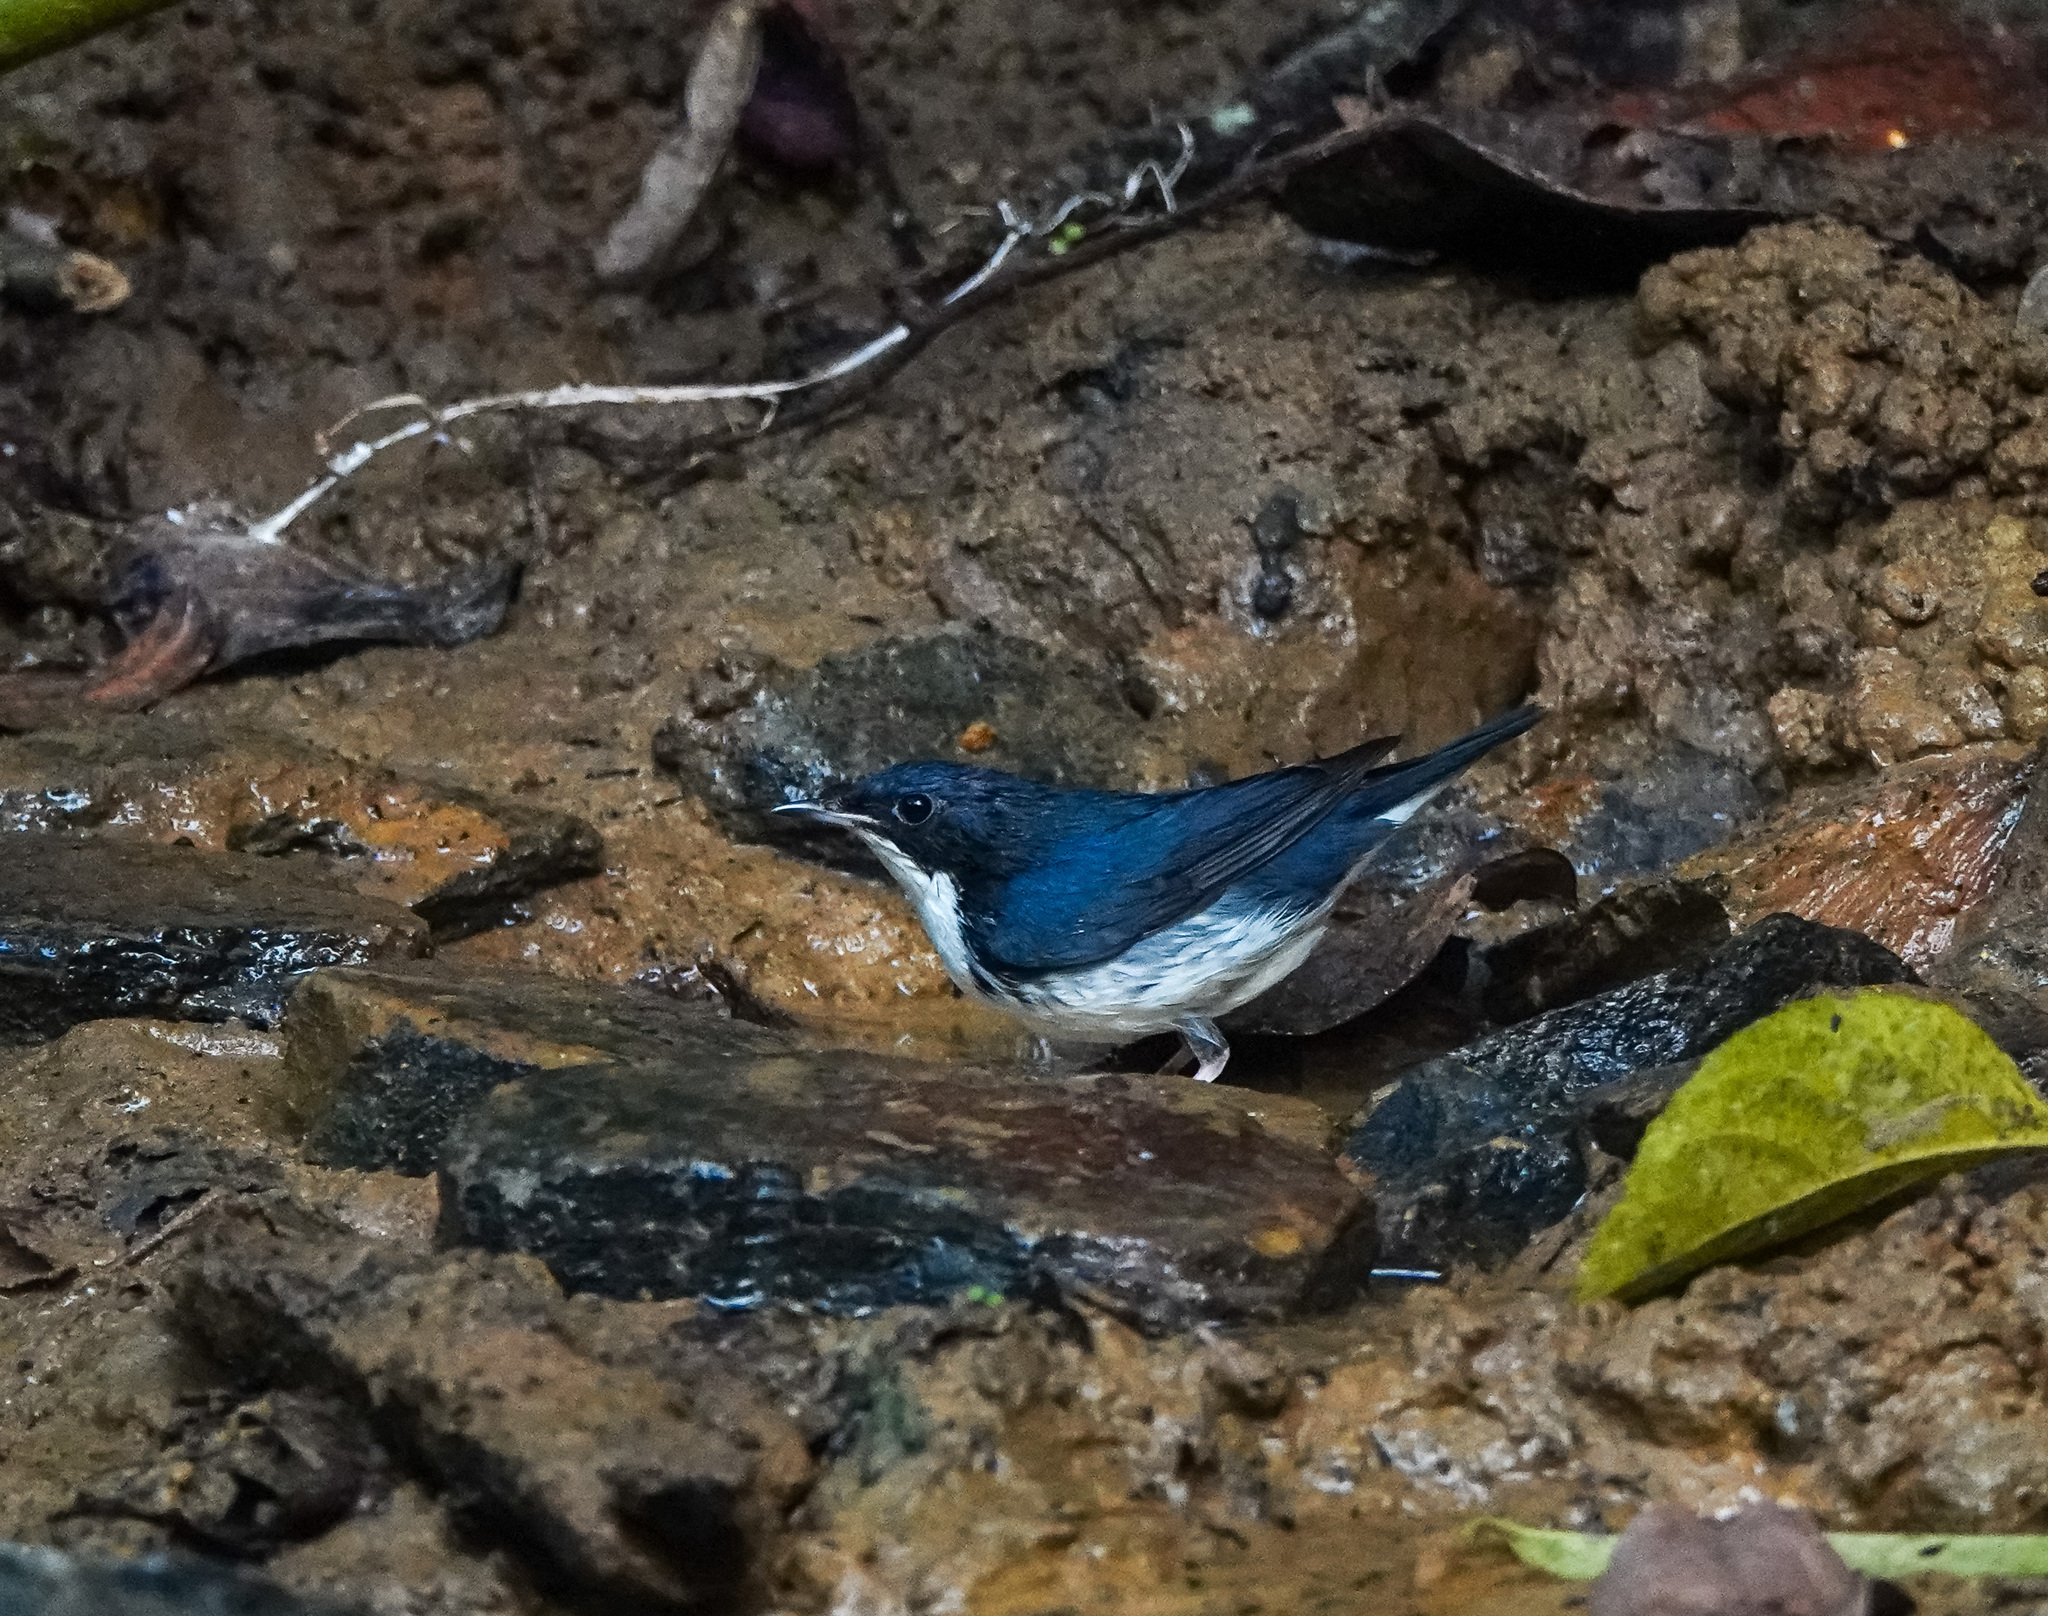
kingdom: Animalia
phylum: Chordata
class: Aves
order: Passeriformes
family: Muscicapidae
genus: Luscinia
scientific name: Luscinia cyane
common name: Siberian blue robin
